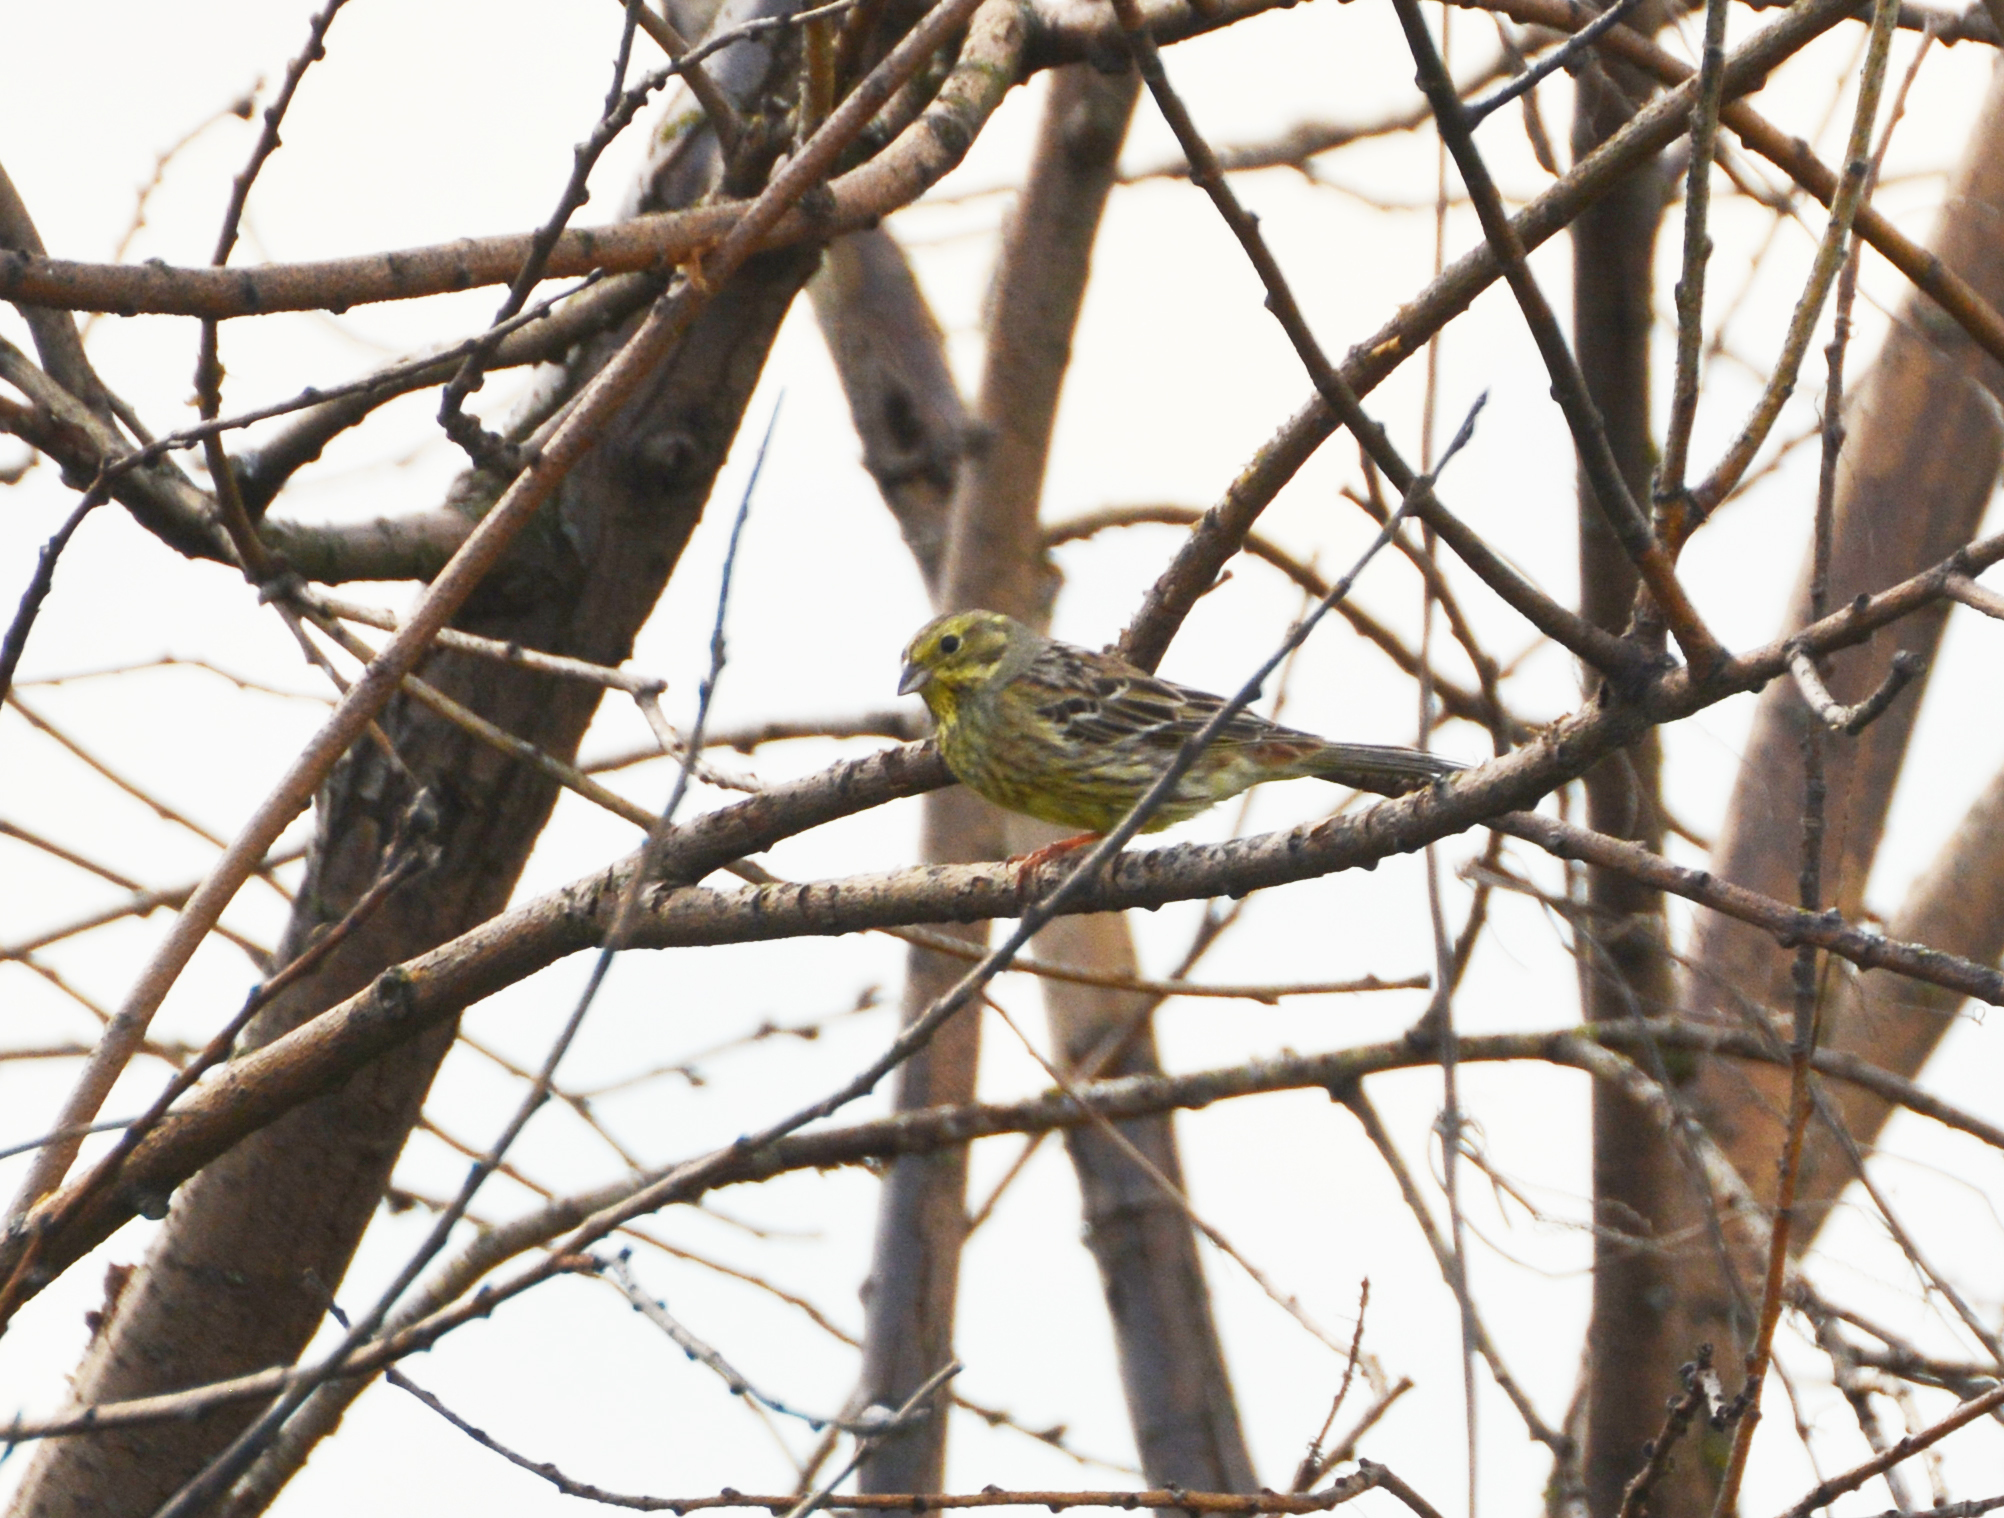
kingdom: Animalia
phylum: Chordata
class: Aves
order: Passeriformes
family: Emberizidae
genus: Emberiza
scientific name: Emberiza citrinella
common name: Yellowhammer
